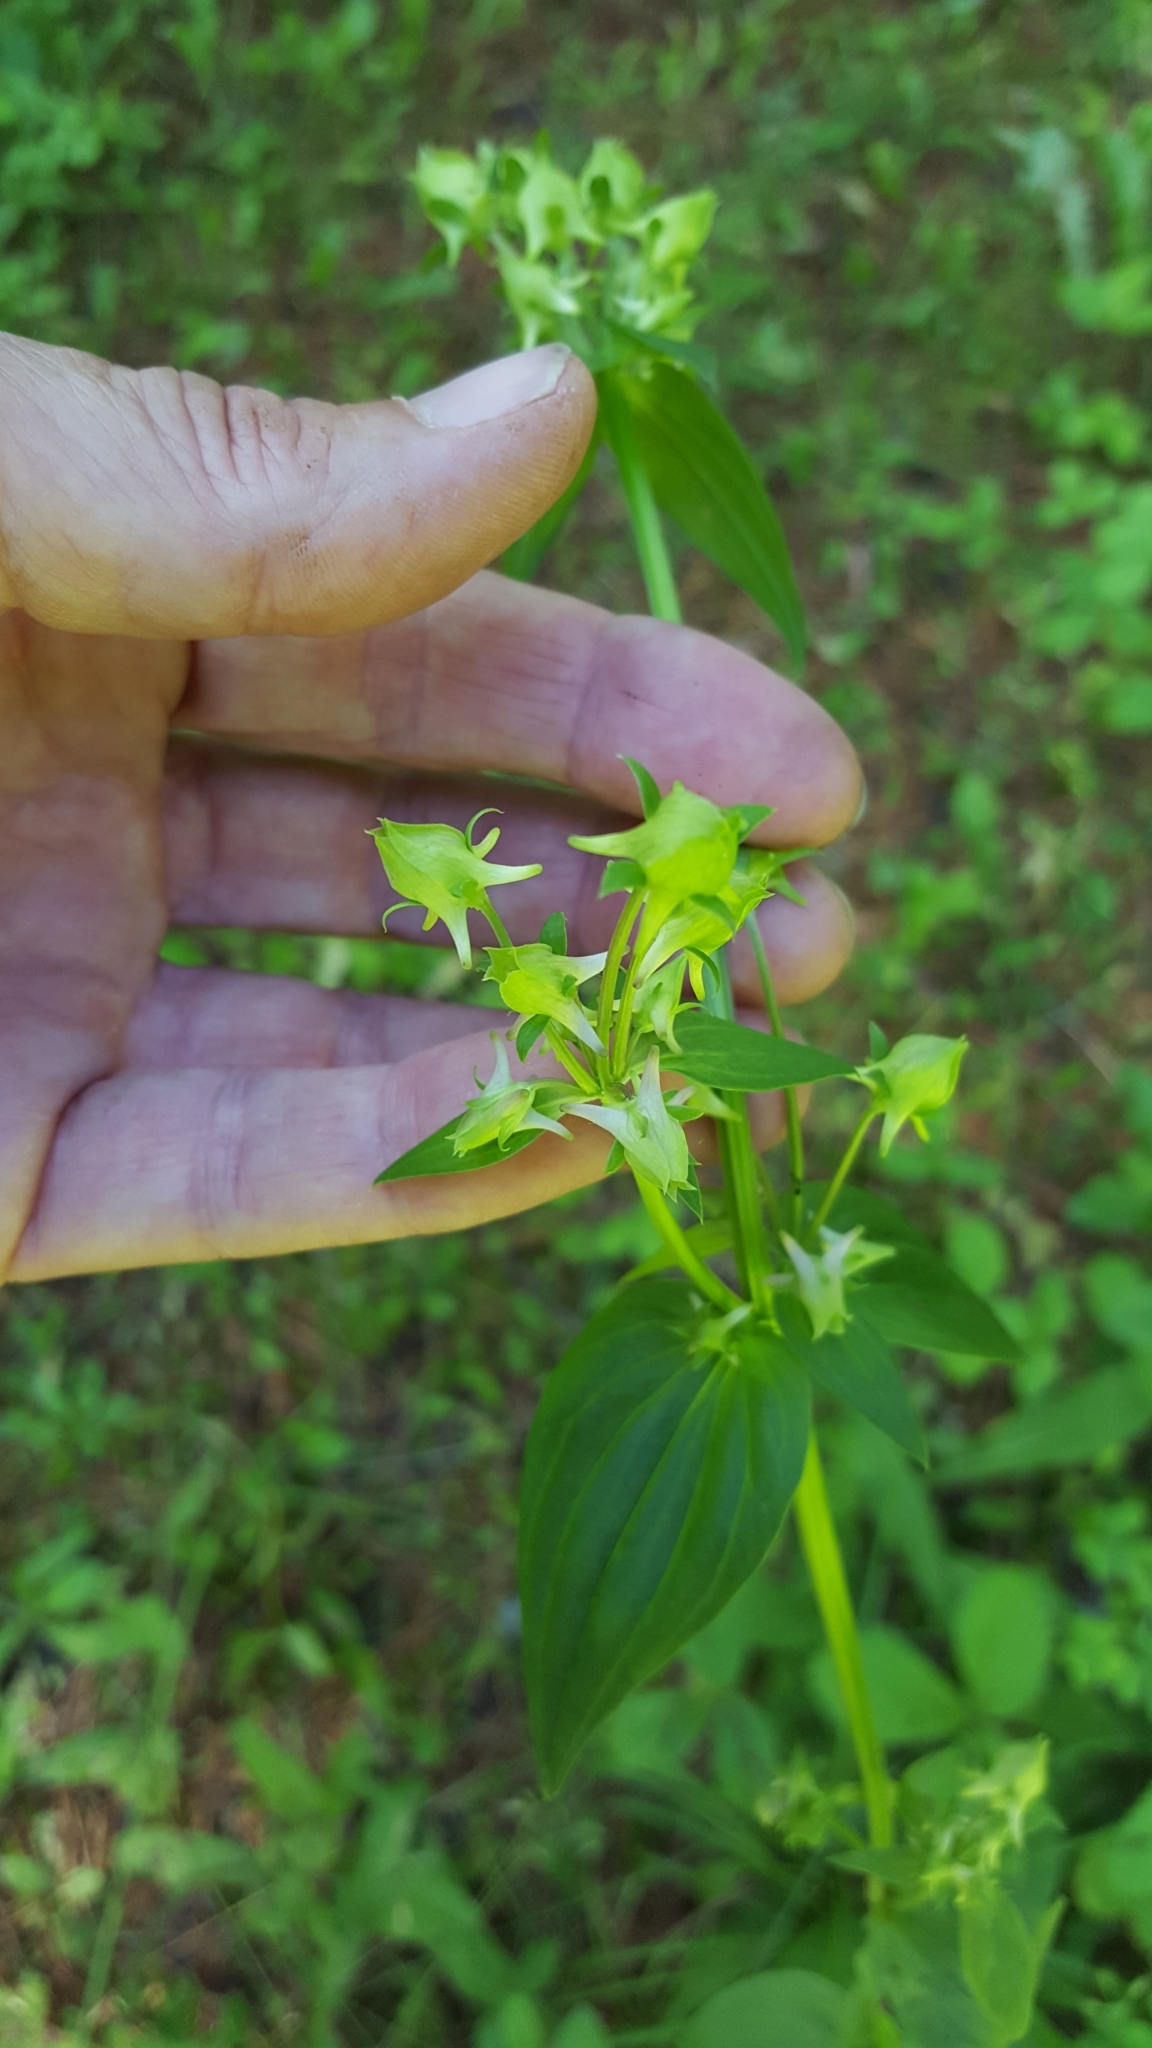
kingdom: Plantae
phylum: Tracheophyta
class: Magnoliopsida
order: Gentianales
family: Gentianaceae
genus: Halenia
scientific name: Halenia deflexa
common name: American spurred gentian
